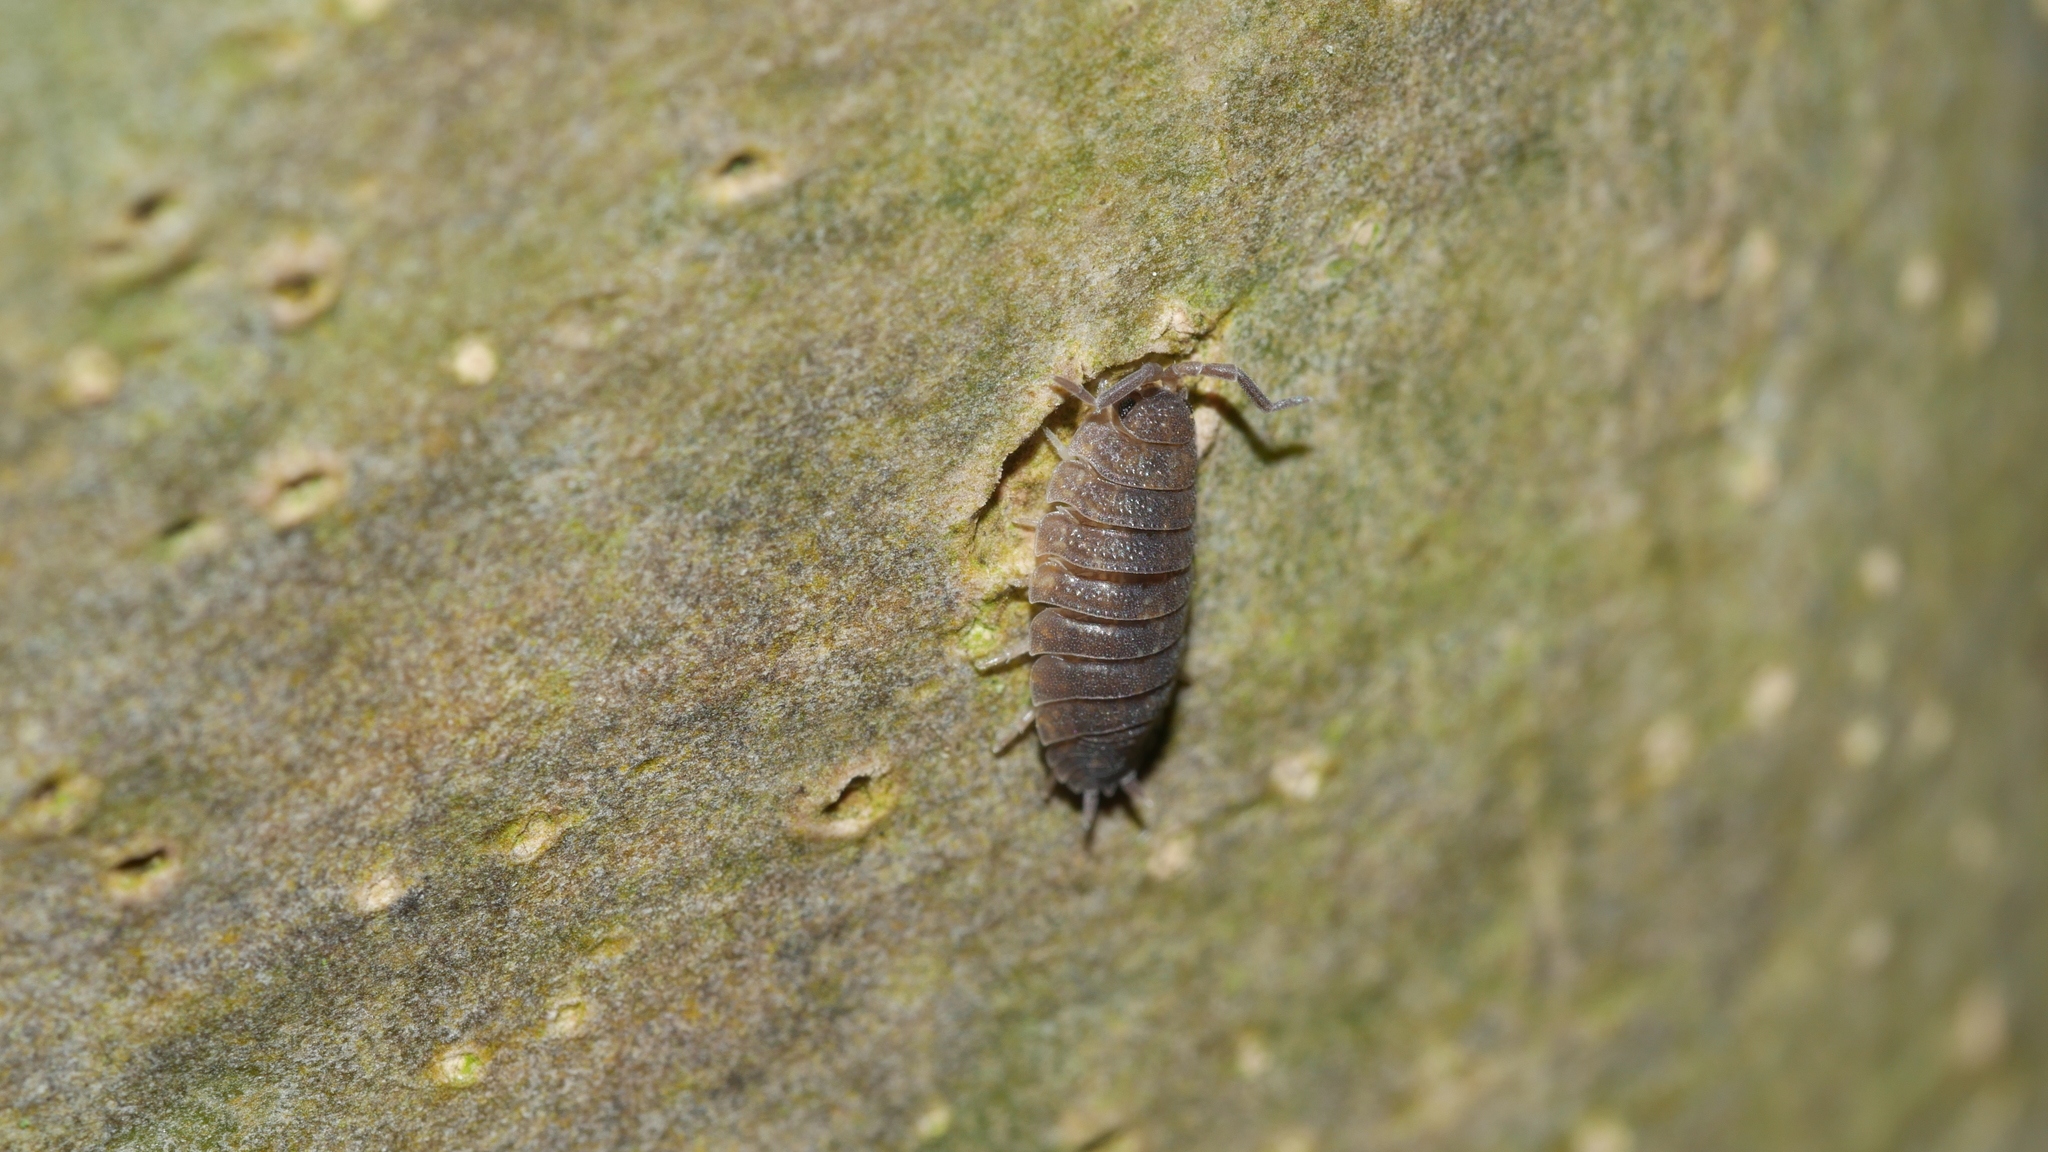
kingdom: Animalia
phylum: Arthropoda
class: Malacostraca
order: Isopoda
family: Porcellionidae
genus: Porcellio
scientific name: Porcellio scaber
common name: Common rough woodlouse
